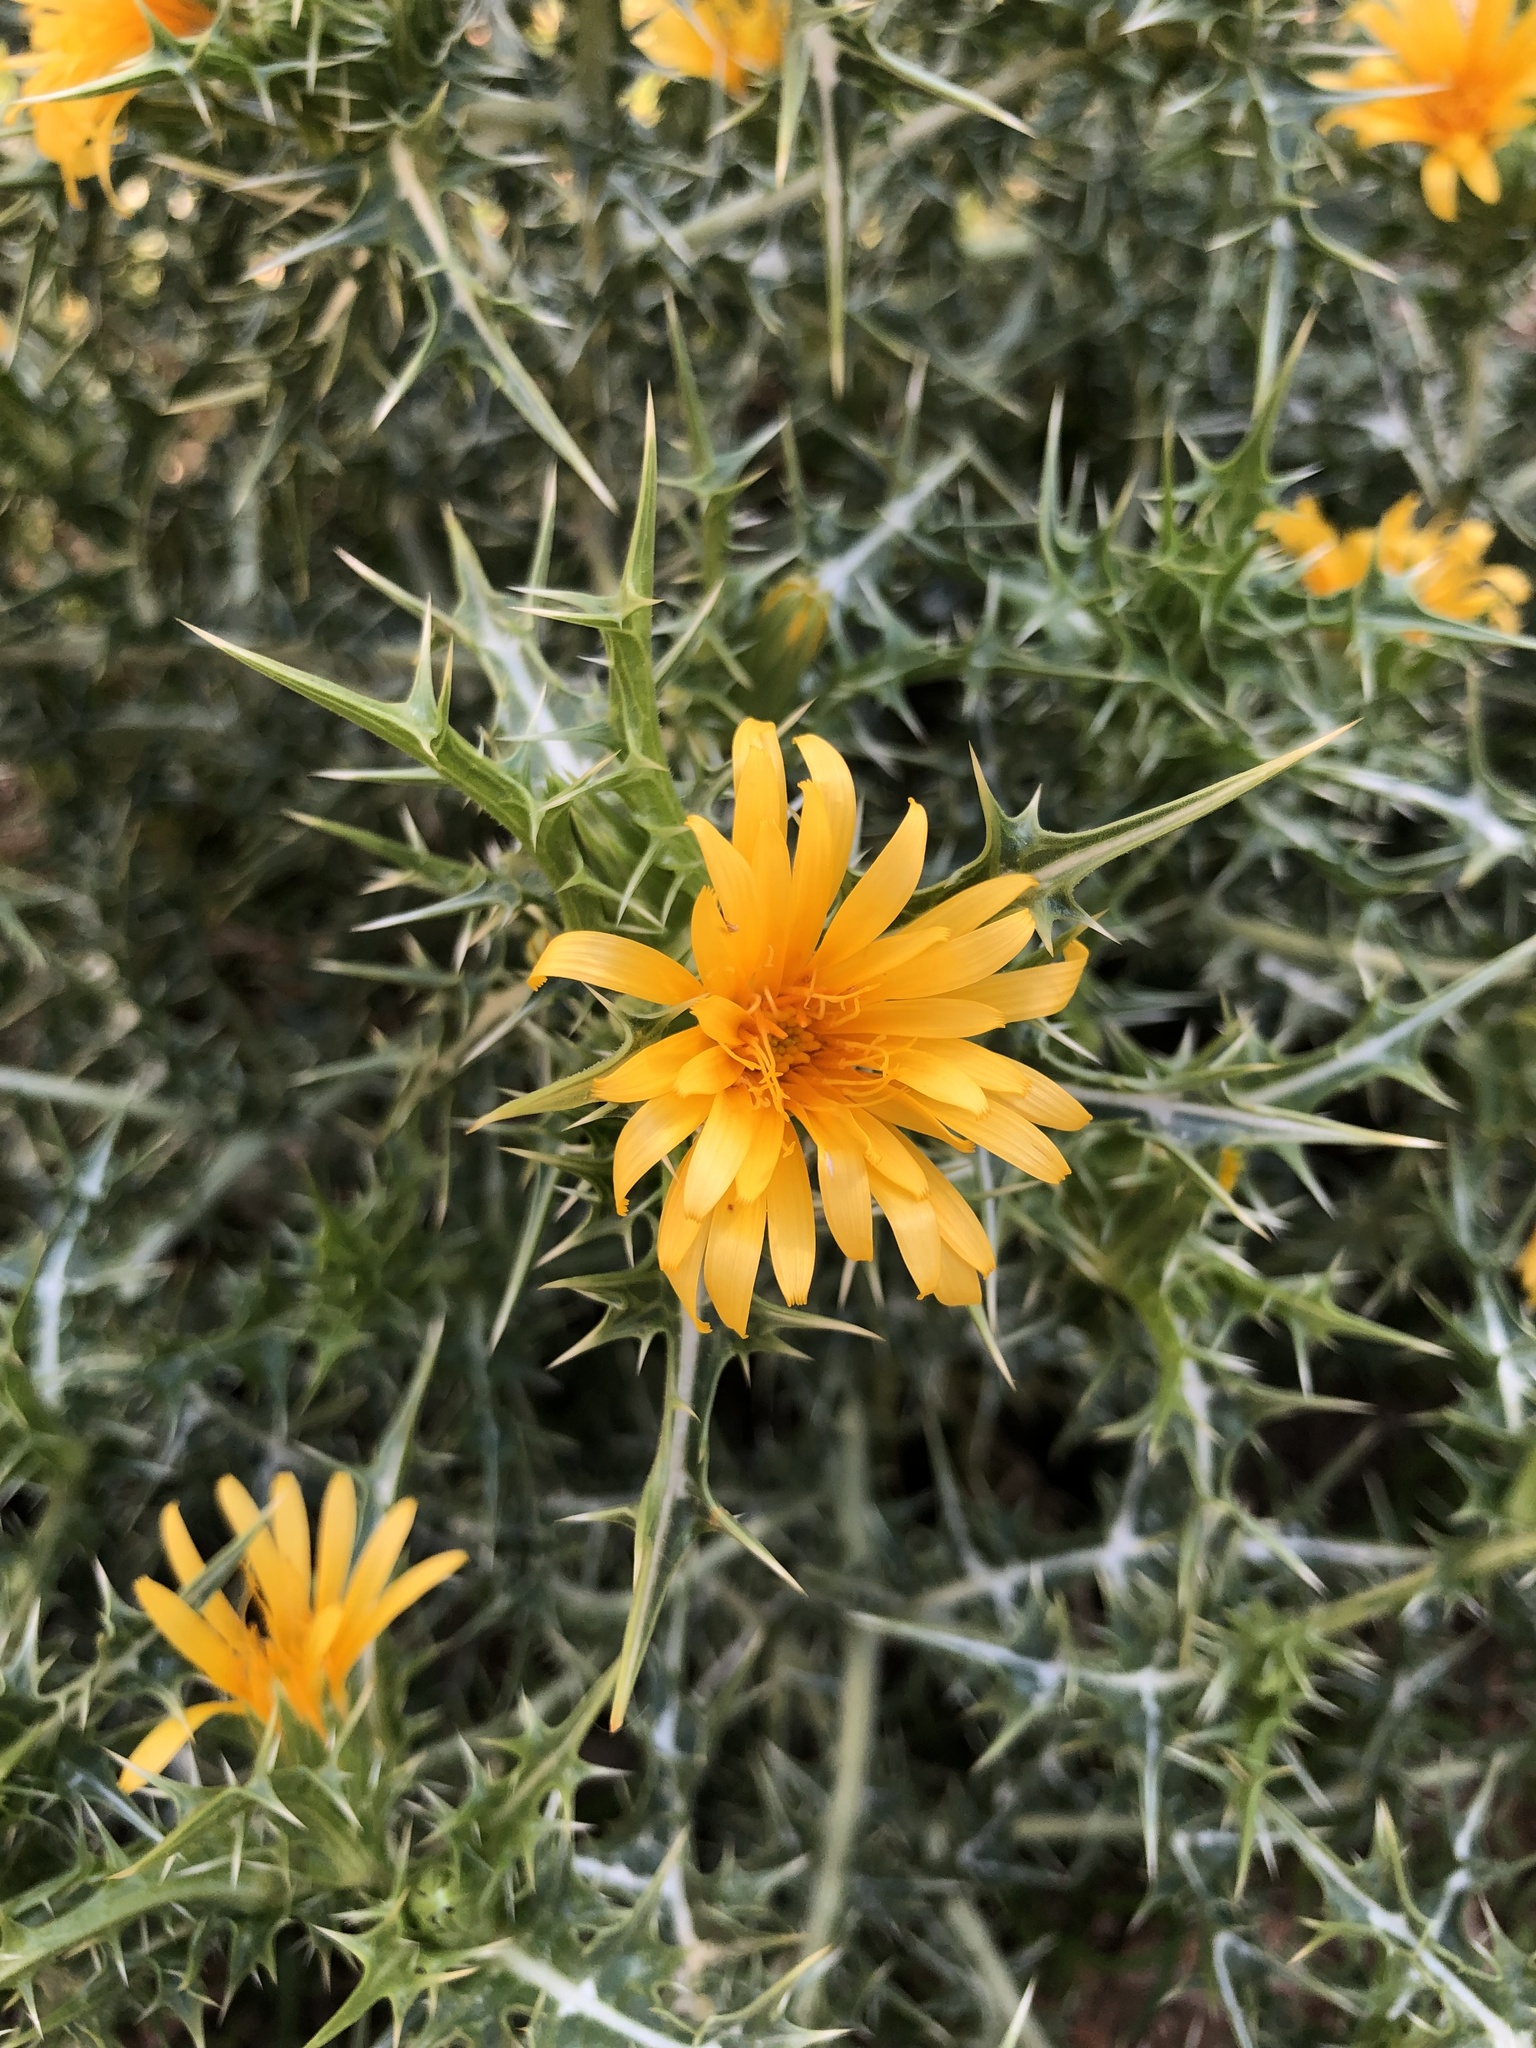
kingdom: Plantae
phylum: Tracheophyta
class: Magnoliopsida
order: Asterales
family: Asteraceae
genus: Scolymus
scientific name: Scolymus hispanicus
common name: Golden thistle
